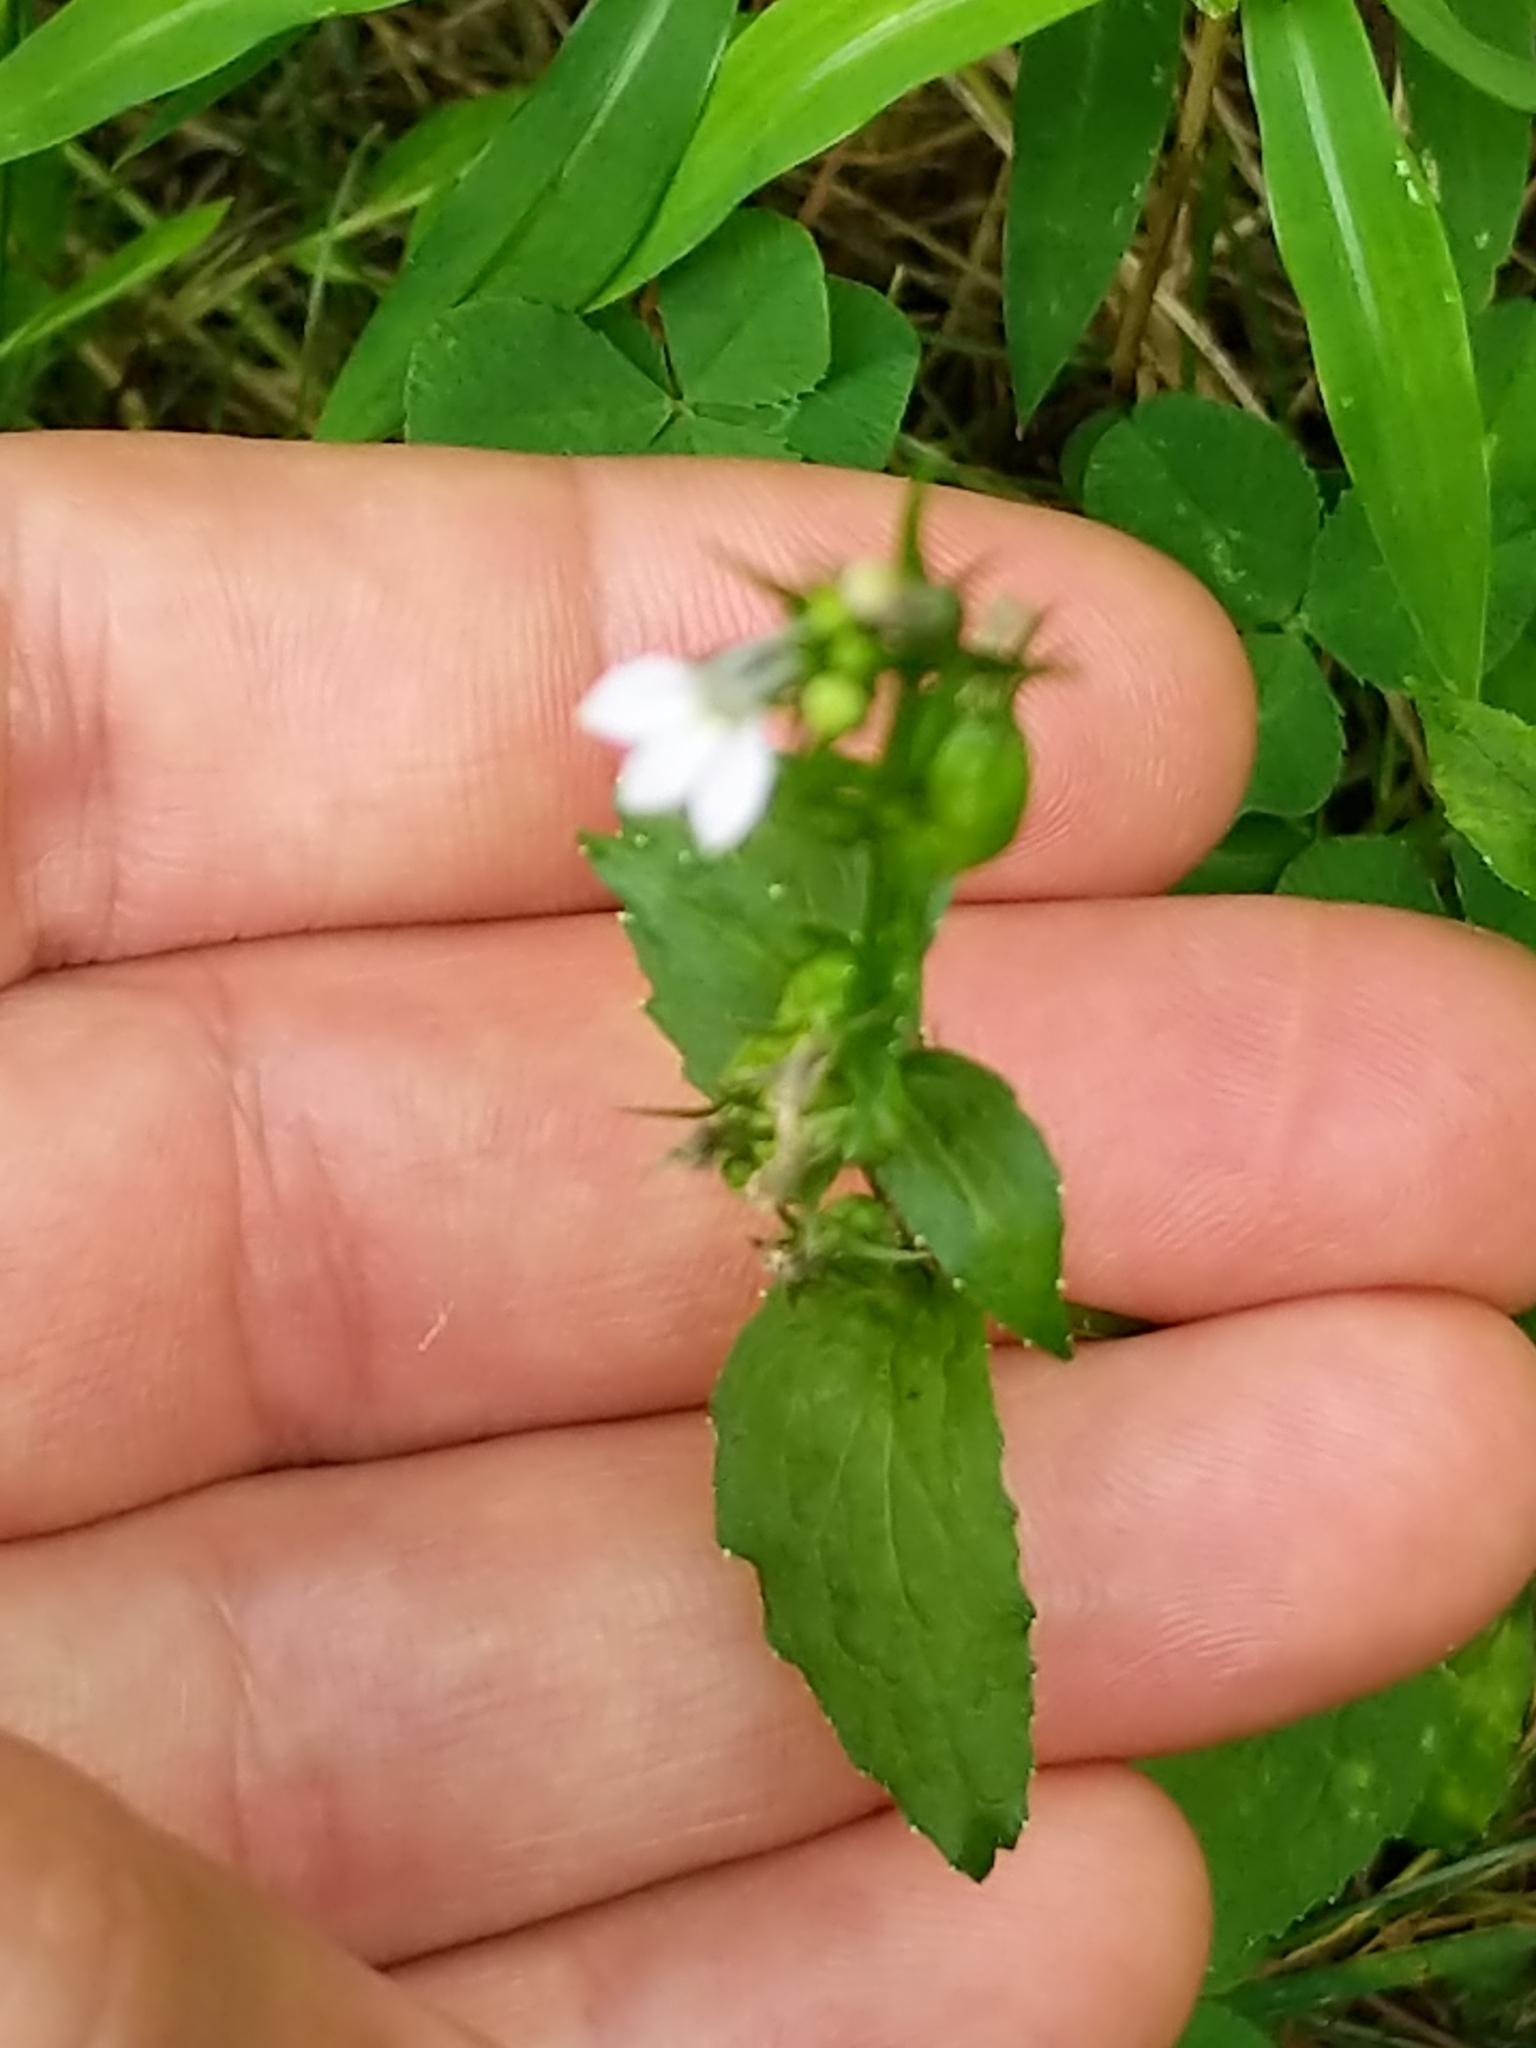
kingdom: Plantae
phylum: Tracheophyta
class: Magnoliopsida
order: Asterales
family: Campanulaceae
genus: Lobelia
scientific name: Lobelia inflata
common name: Indian tobacco
